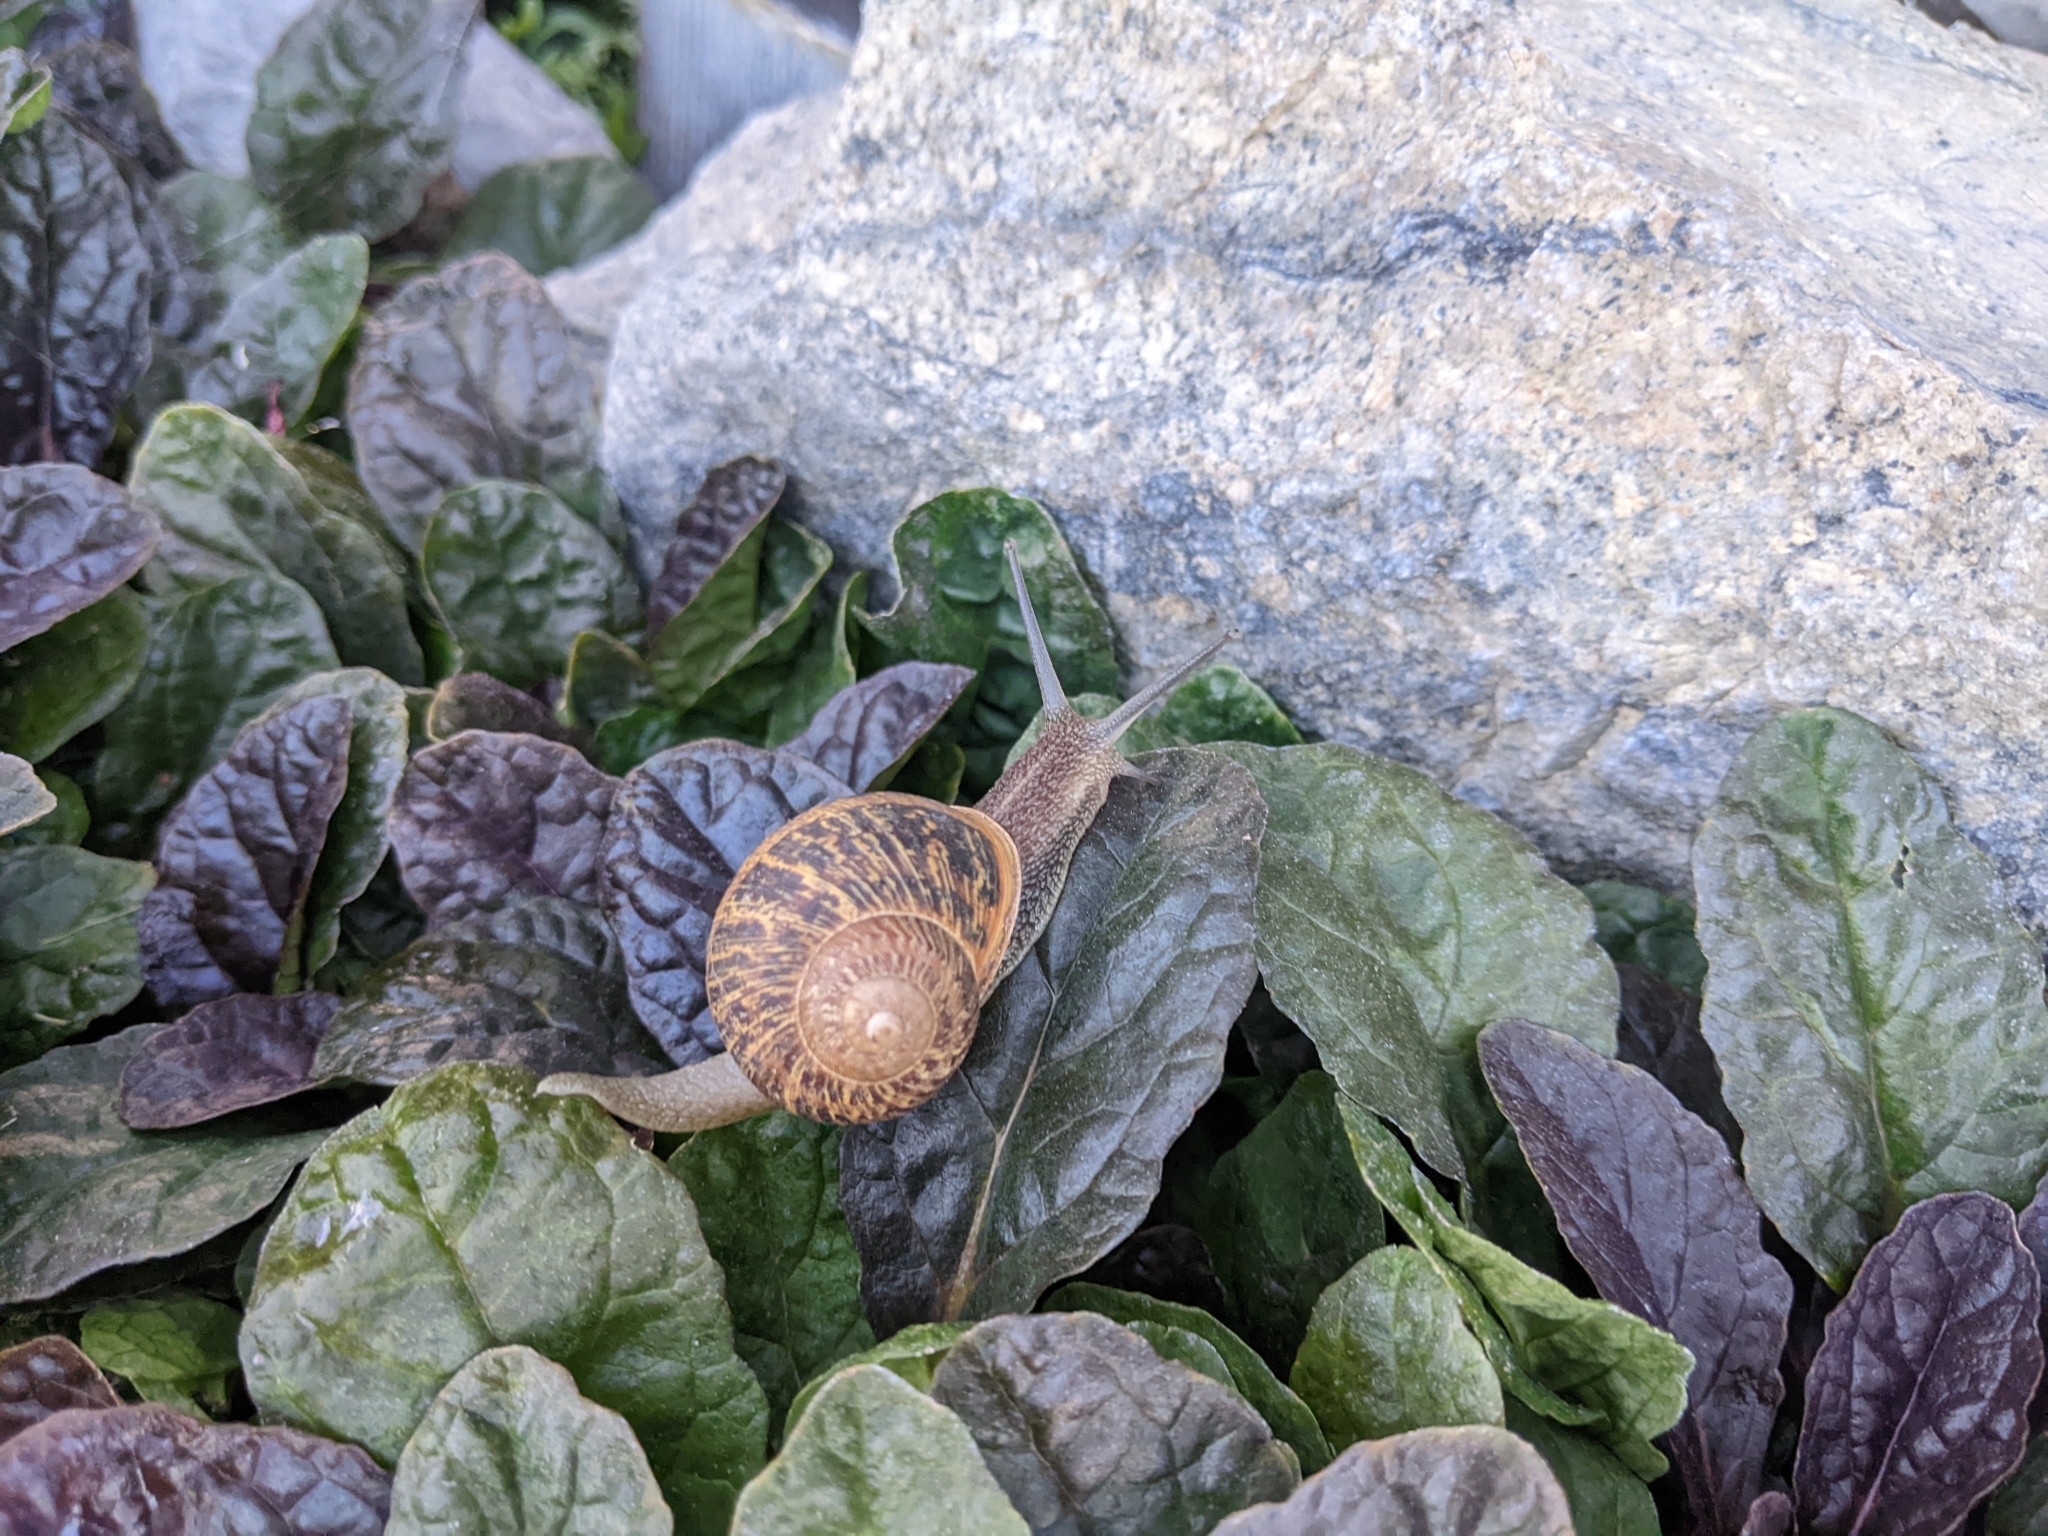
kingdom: Animalia
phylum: Mollusca
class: Gastropoda
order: Stylommatophora
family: Helicidae
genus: Cornu
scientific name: Cornu aspersum
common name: Brown garden snail
